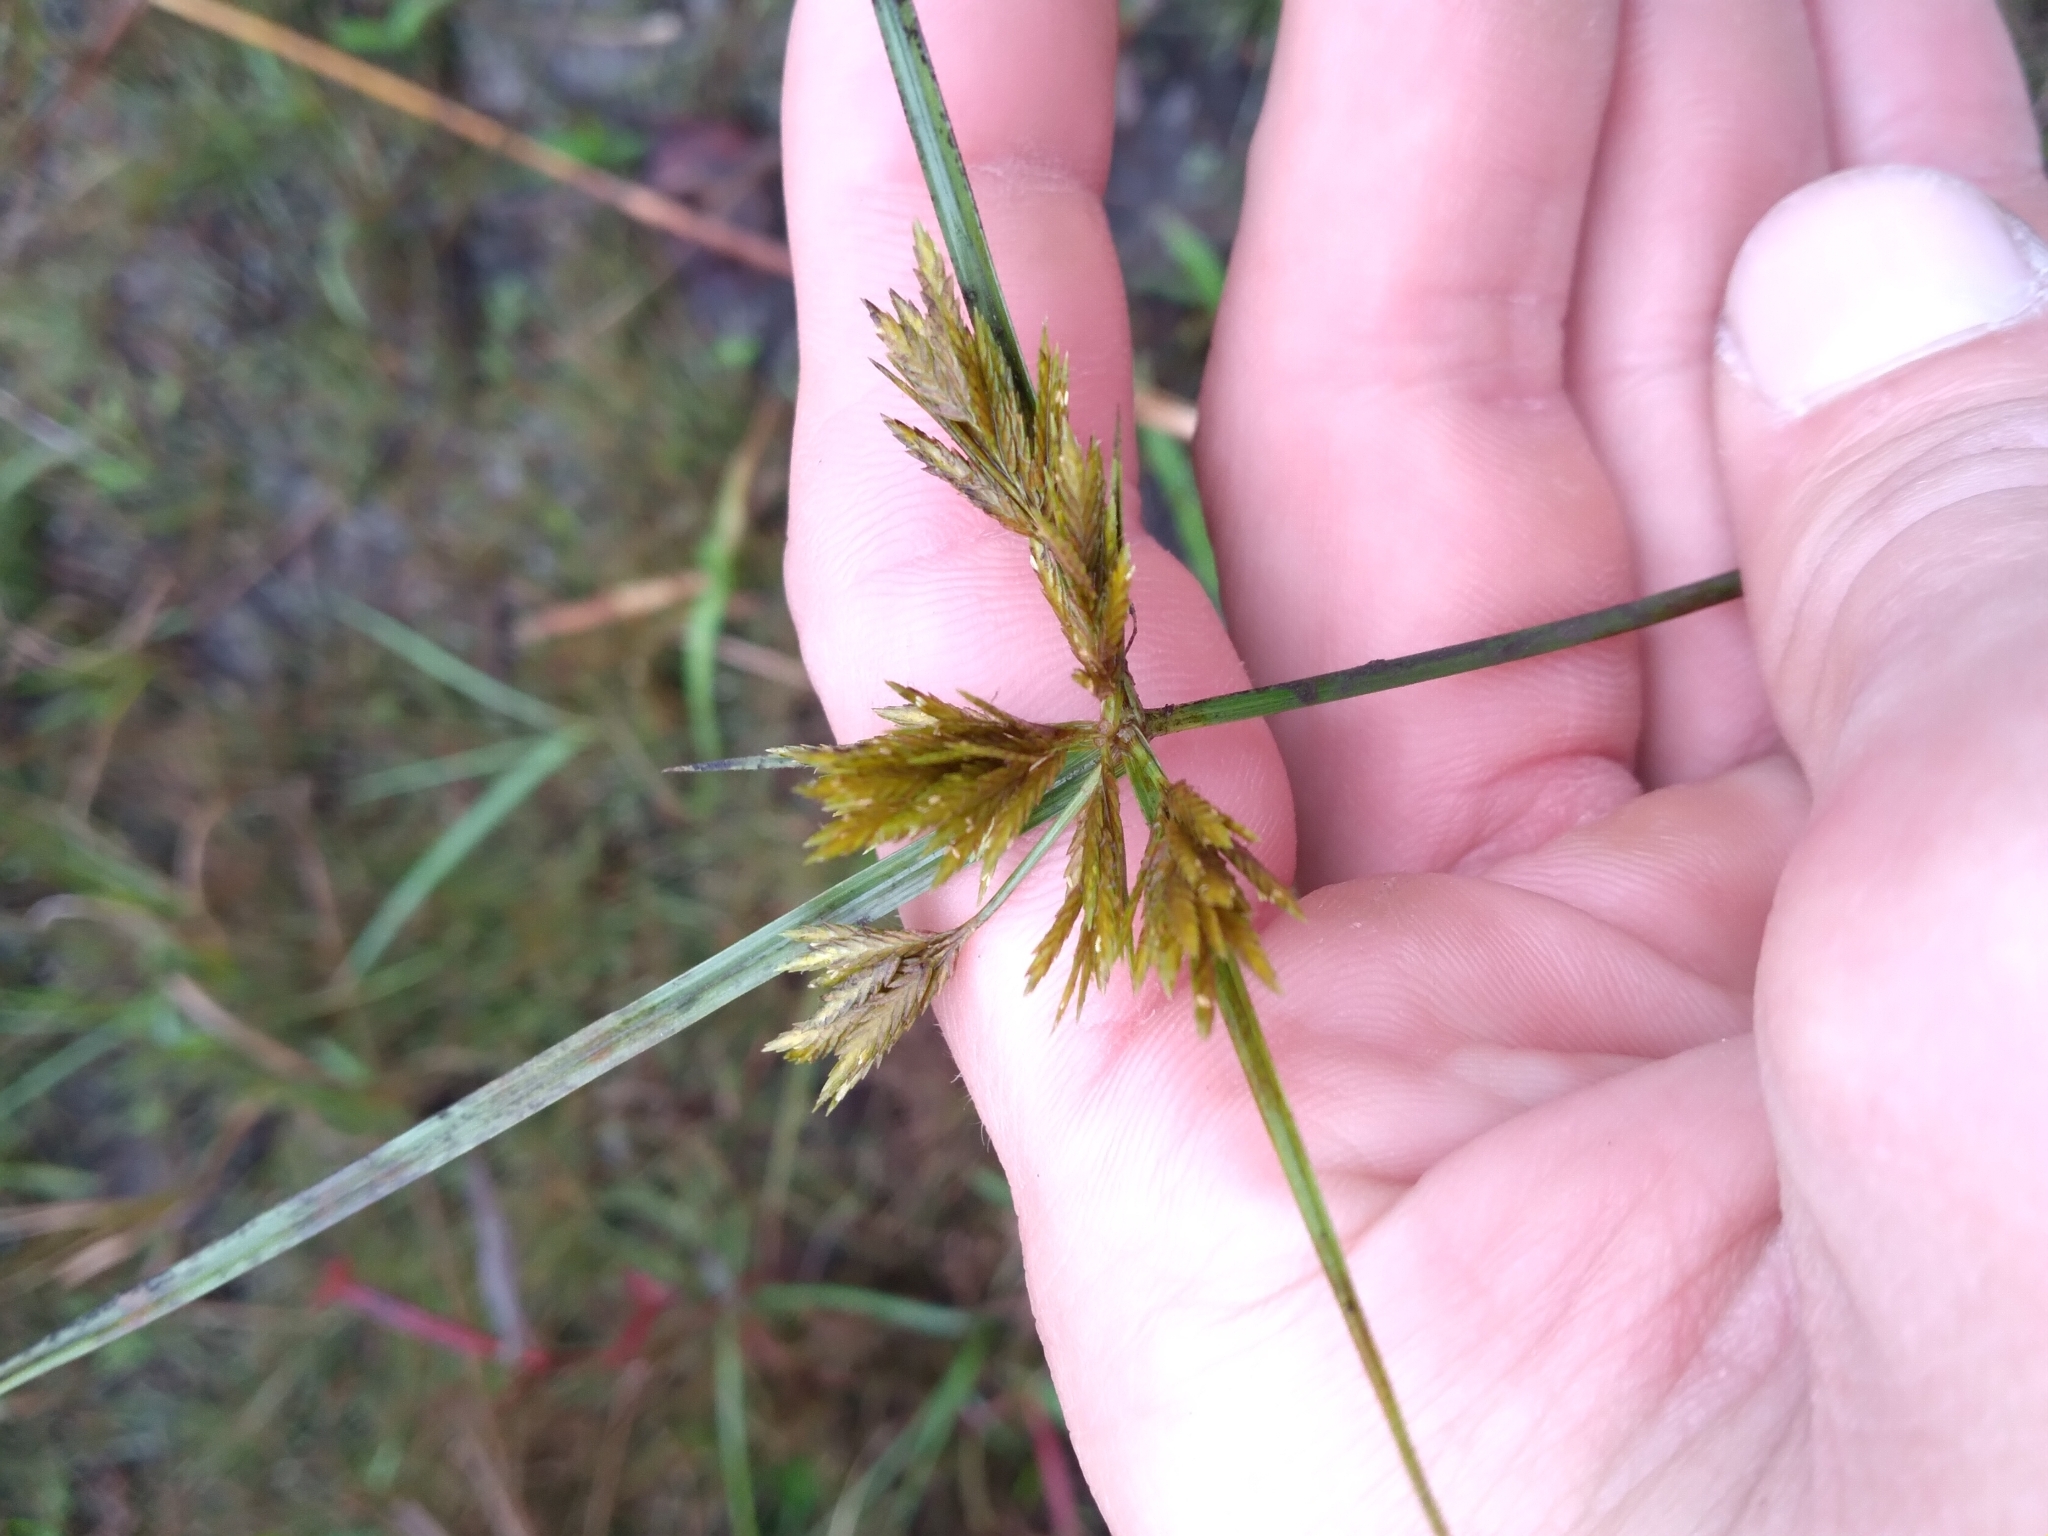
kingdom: Plantae
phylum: Tracheophyta
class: Liliopsida
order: Poales
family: Cyperaceae
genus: Cyperus
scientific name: Cyperus polystachyos
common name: Bunchy flat sedge
